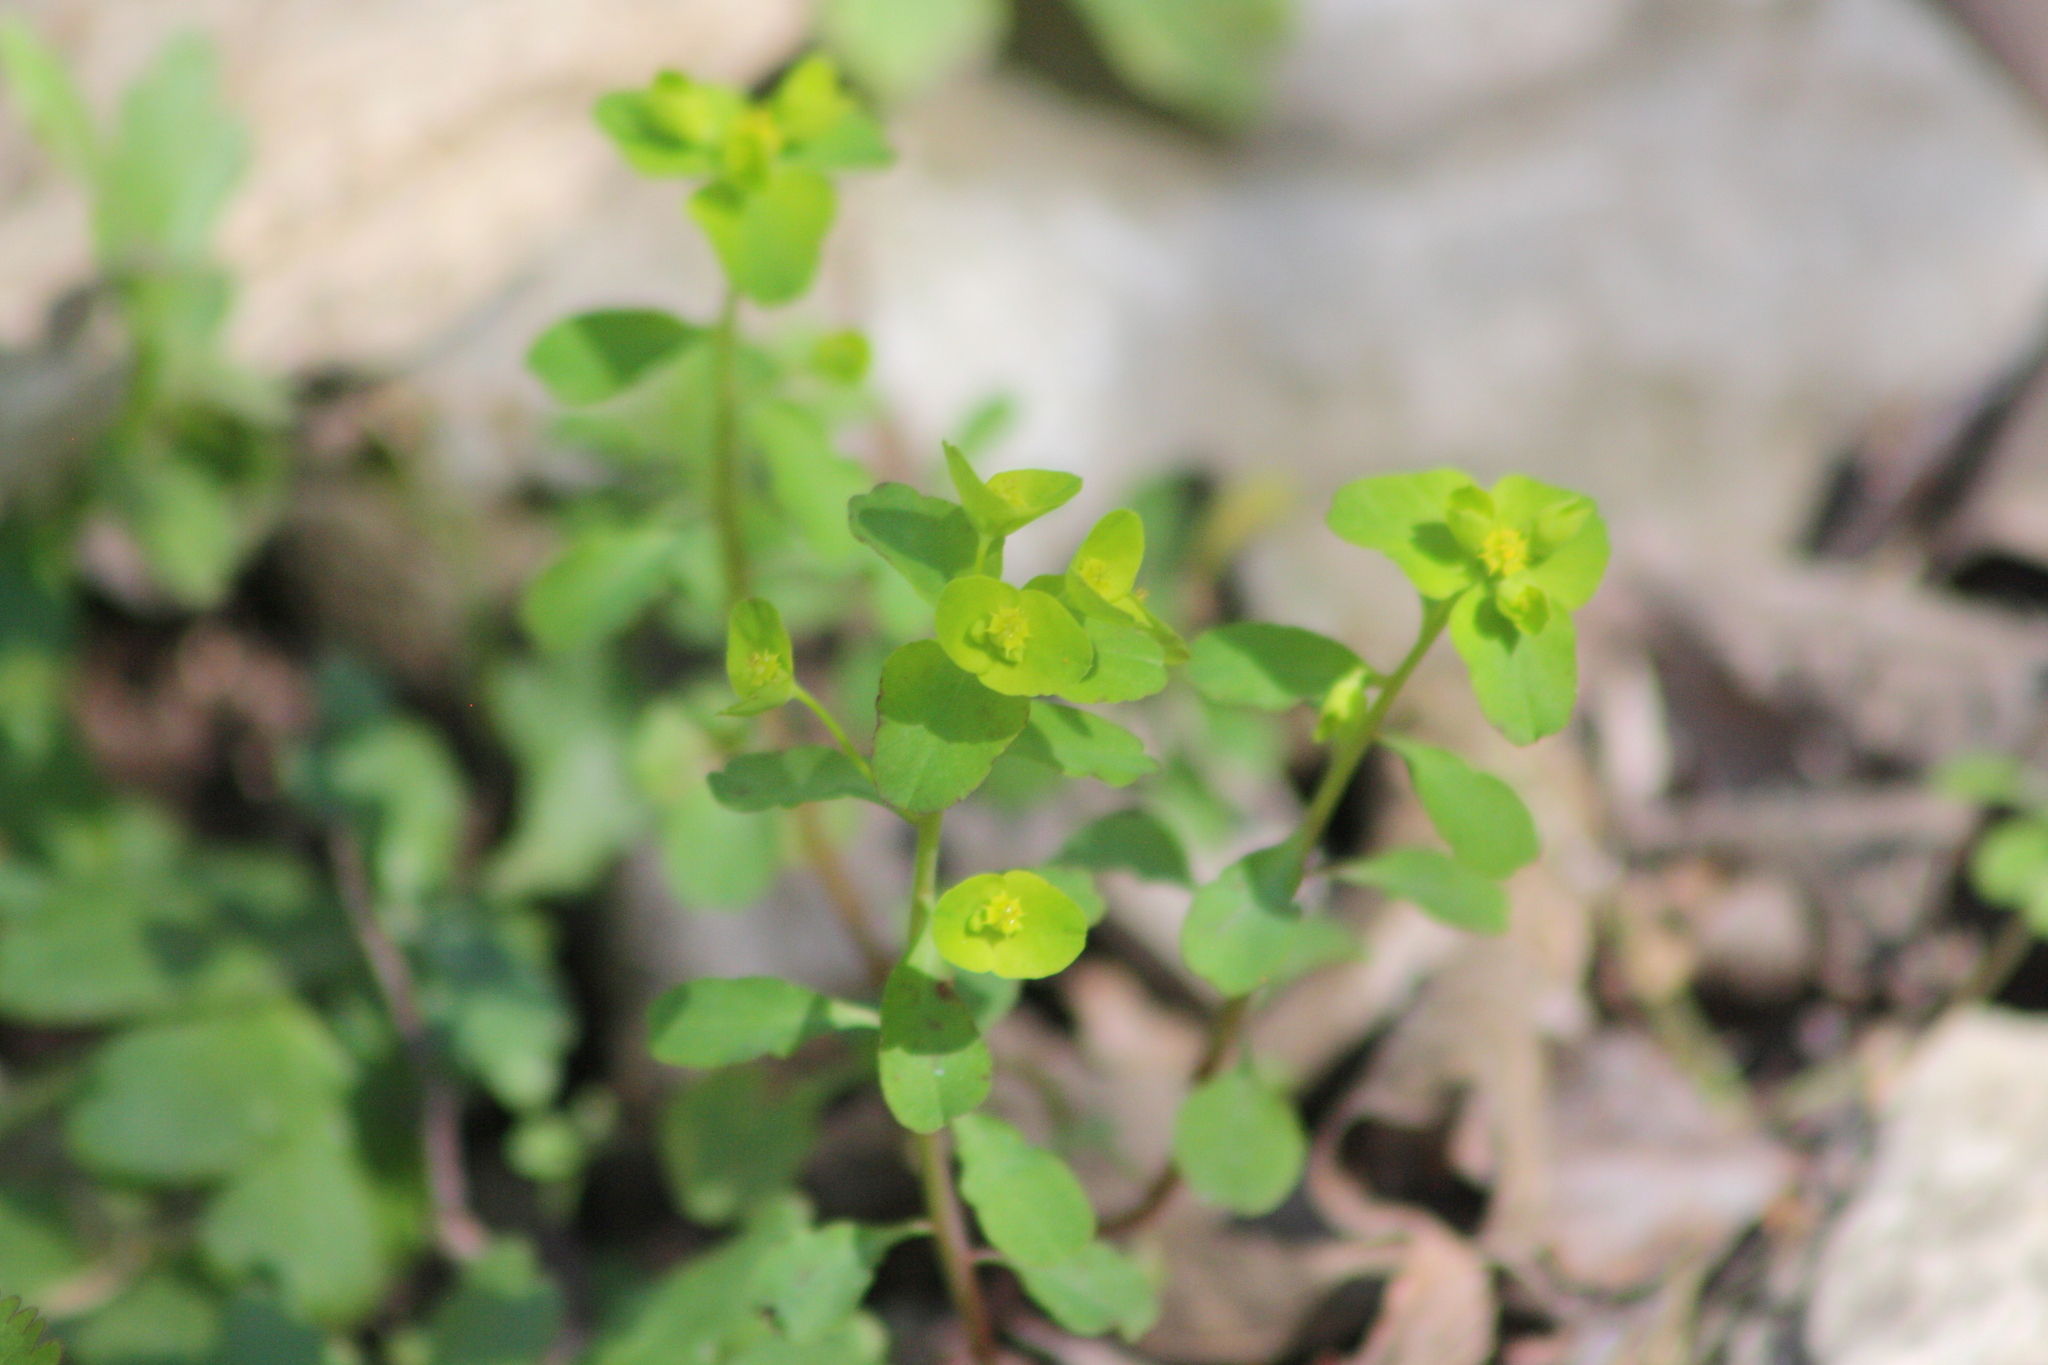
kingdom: Plantae
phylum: Tracheophyta
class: Magnoliopsida
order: Malpighiales
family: Euphorbiaceae
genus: Euphorbia
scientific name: Euphorbia roemeriana
